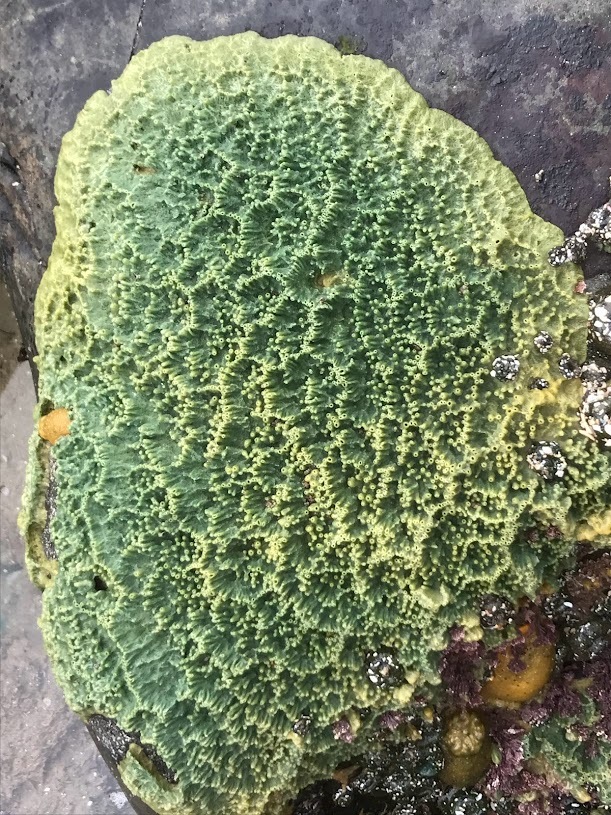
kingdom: Animalia
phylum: Porifera
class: Demospongiae
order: Suberitida
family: Halichondriidae
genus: Halichondria
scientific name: Halichondria panicea
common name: Breadcrumb sponge
